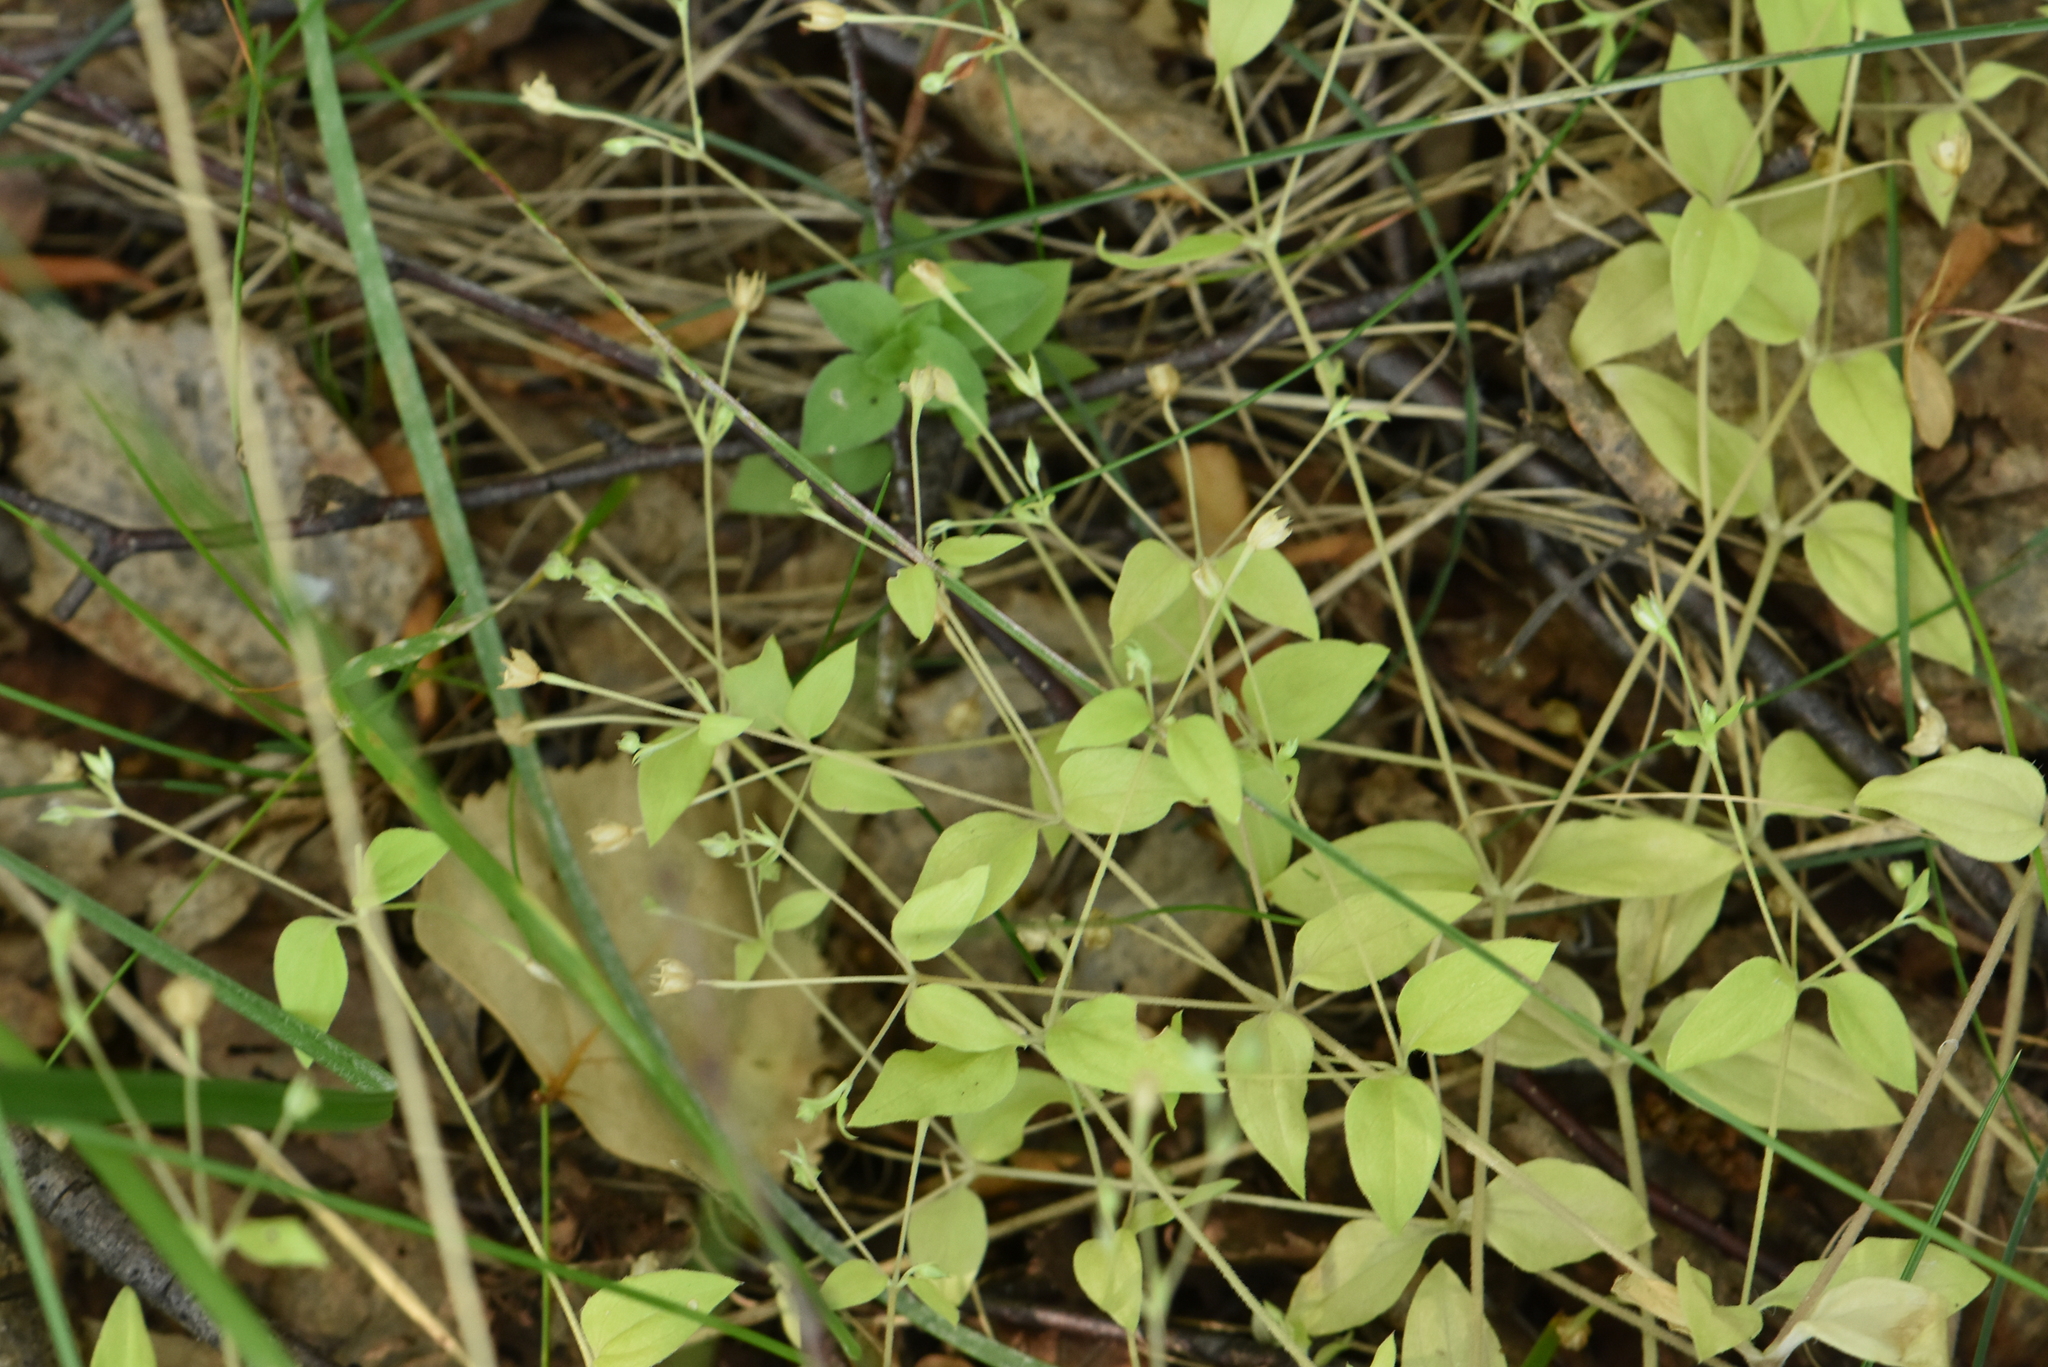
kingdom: Plantae
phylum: Tracheophyta
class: Magnoliopsida
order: Caryophyllales
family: Caryophyllaceae
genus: Moehringia
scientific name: Moehringia trinervia
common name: Three-nerved sandwort
